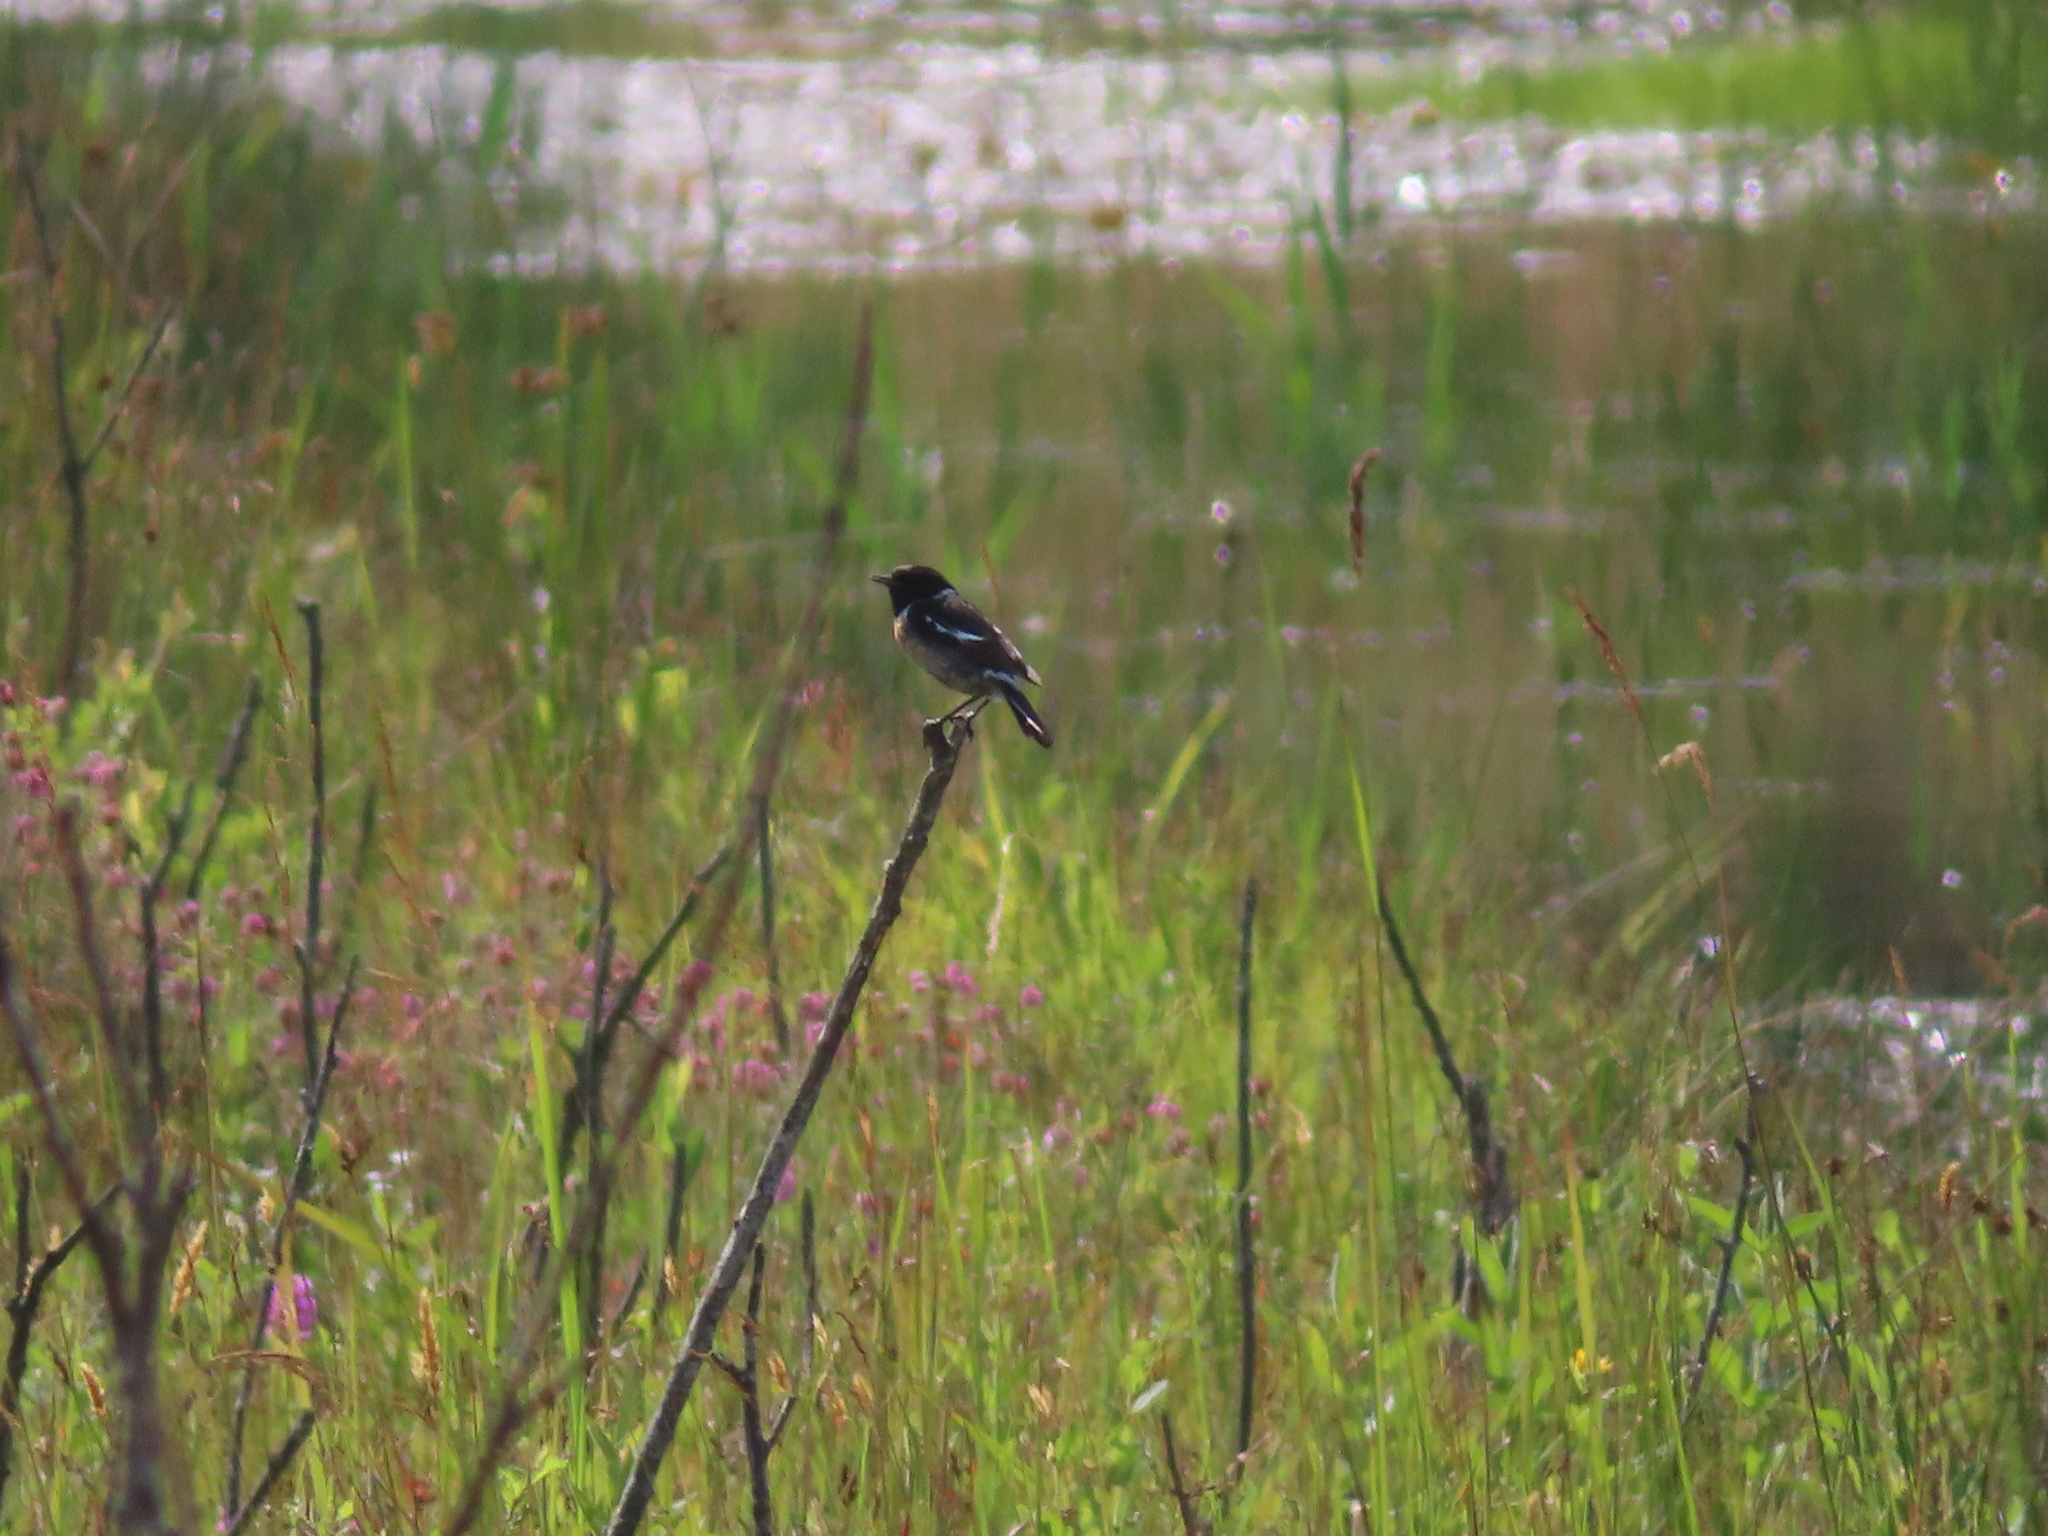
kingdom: Animalia
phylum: Chordata
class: Aves
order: Passeriformes
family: Muscicapidae
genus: Saxicola
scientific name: Saxicola rubicola
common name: European stonechat
